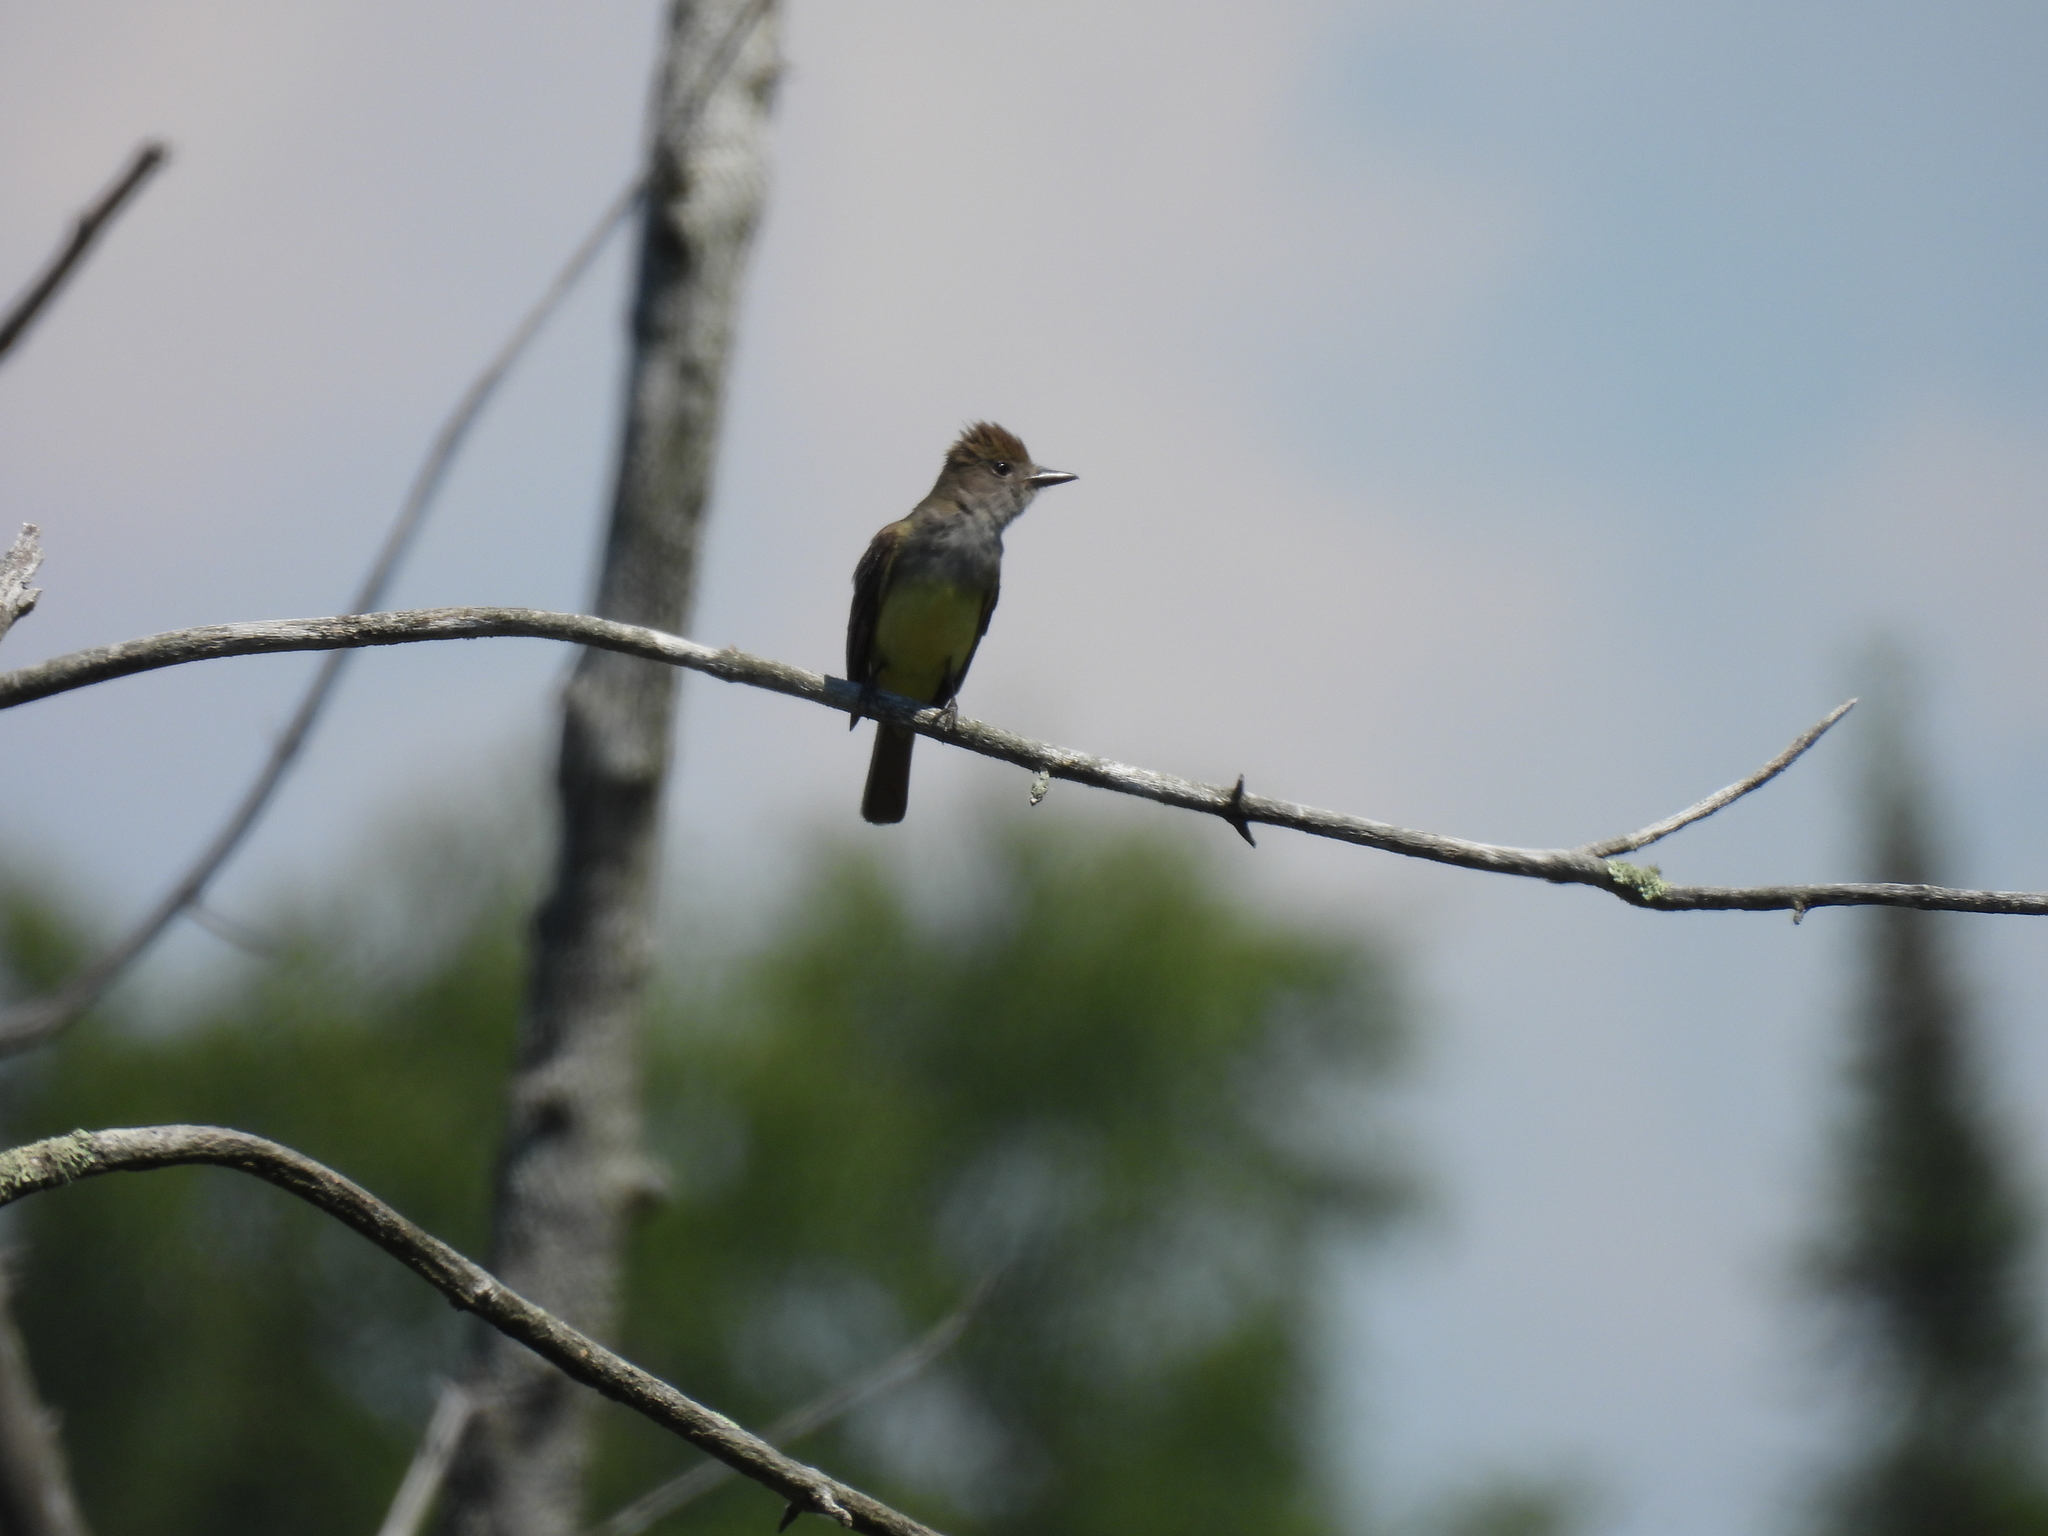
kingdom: Animalia
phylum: Chordata
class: Aves
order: Passeriformes
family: Tyrannidae
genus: Myiarchus
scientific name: Myiarchus crinitus
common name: Great crested flycatcher
